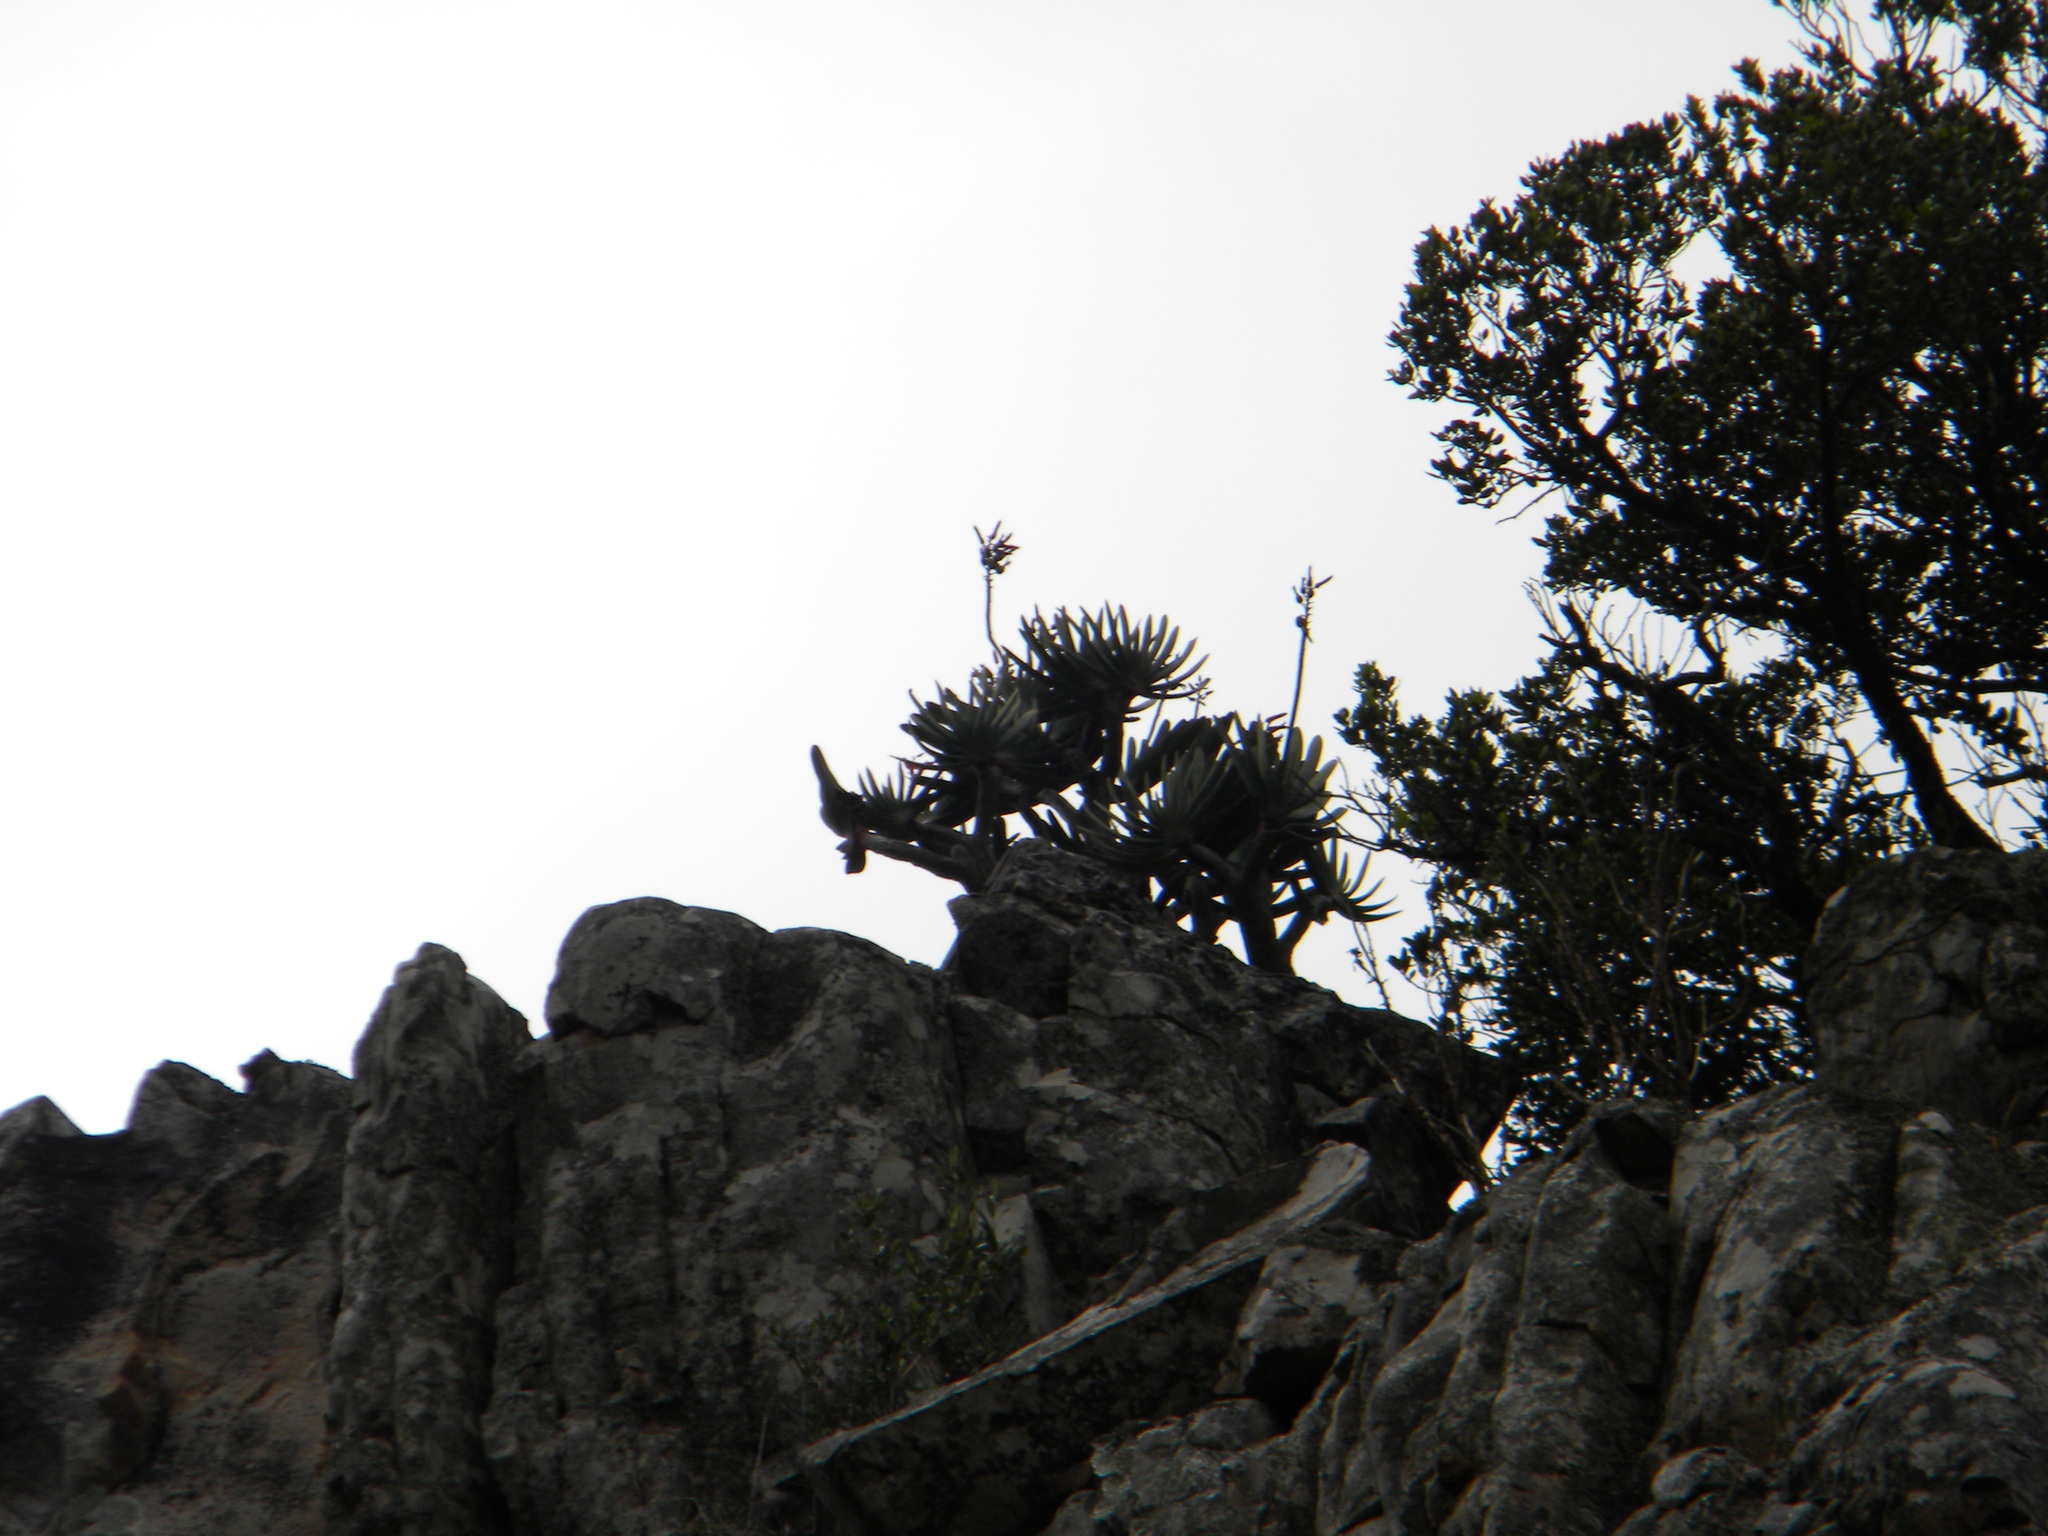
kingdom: Plantae
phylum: Tracheophyta
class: Liliopsida
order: Asparagales
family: Asphodelaceae
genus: Kumara
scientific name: Kumara plicatilis
